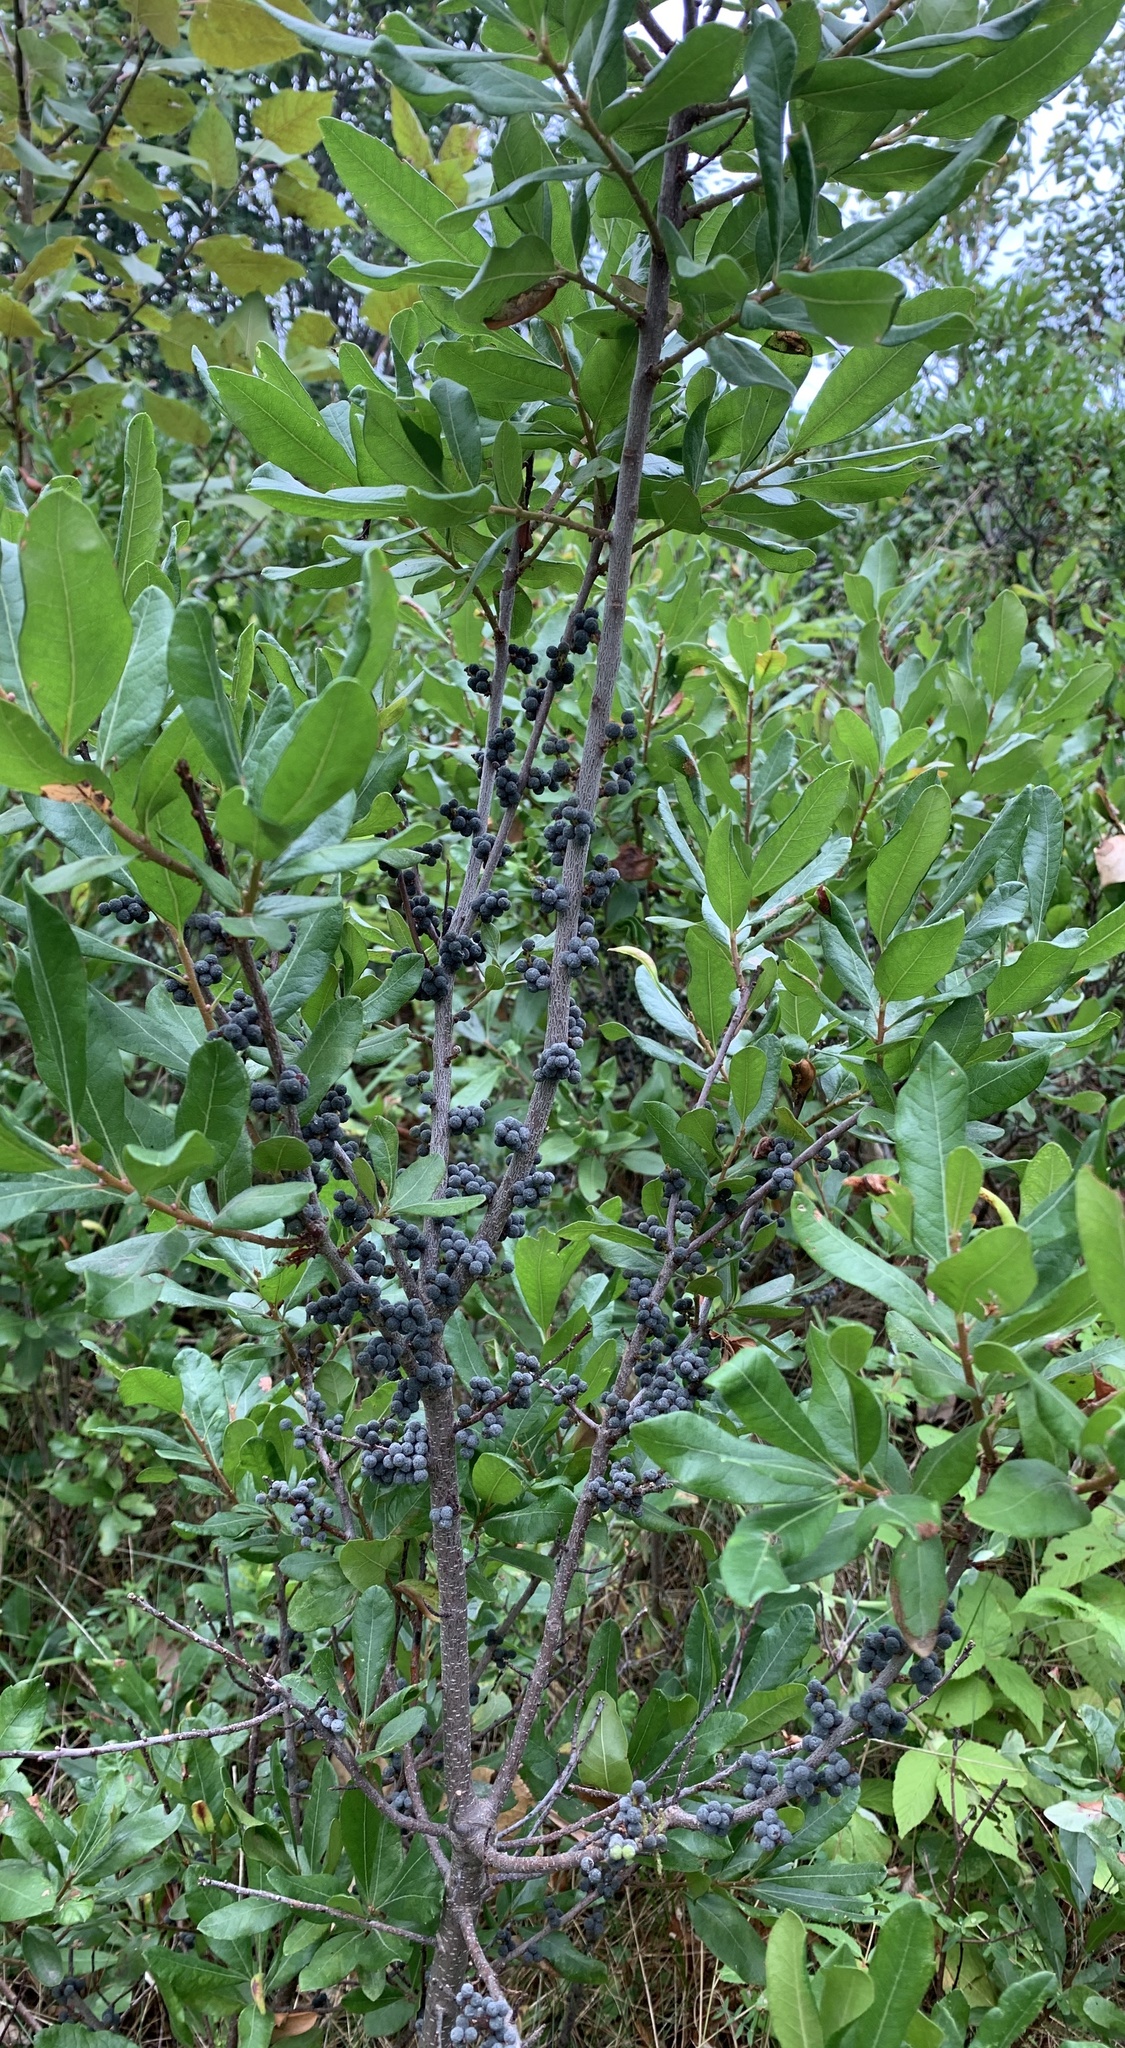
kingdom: Plantae
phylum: Tracheophyta
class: Magnoliopsida
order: Fagales
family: Myricaceae
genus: Morella
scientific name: Morella pensylvanica
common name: Northern bayberry
